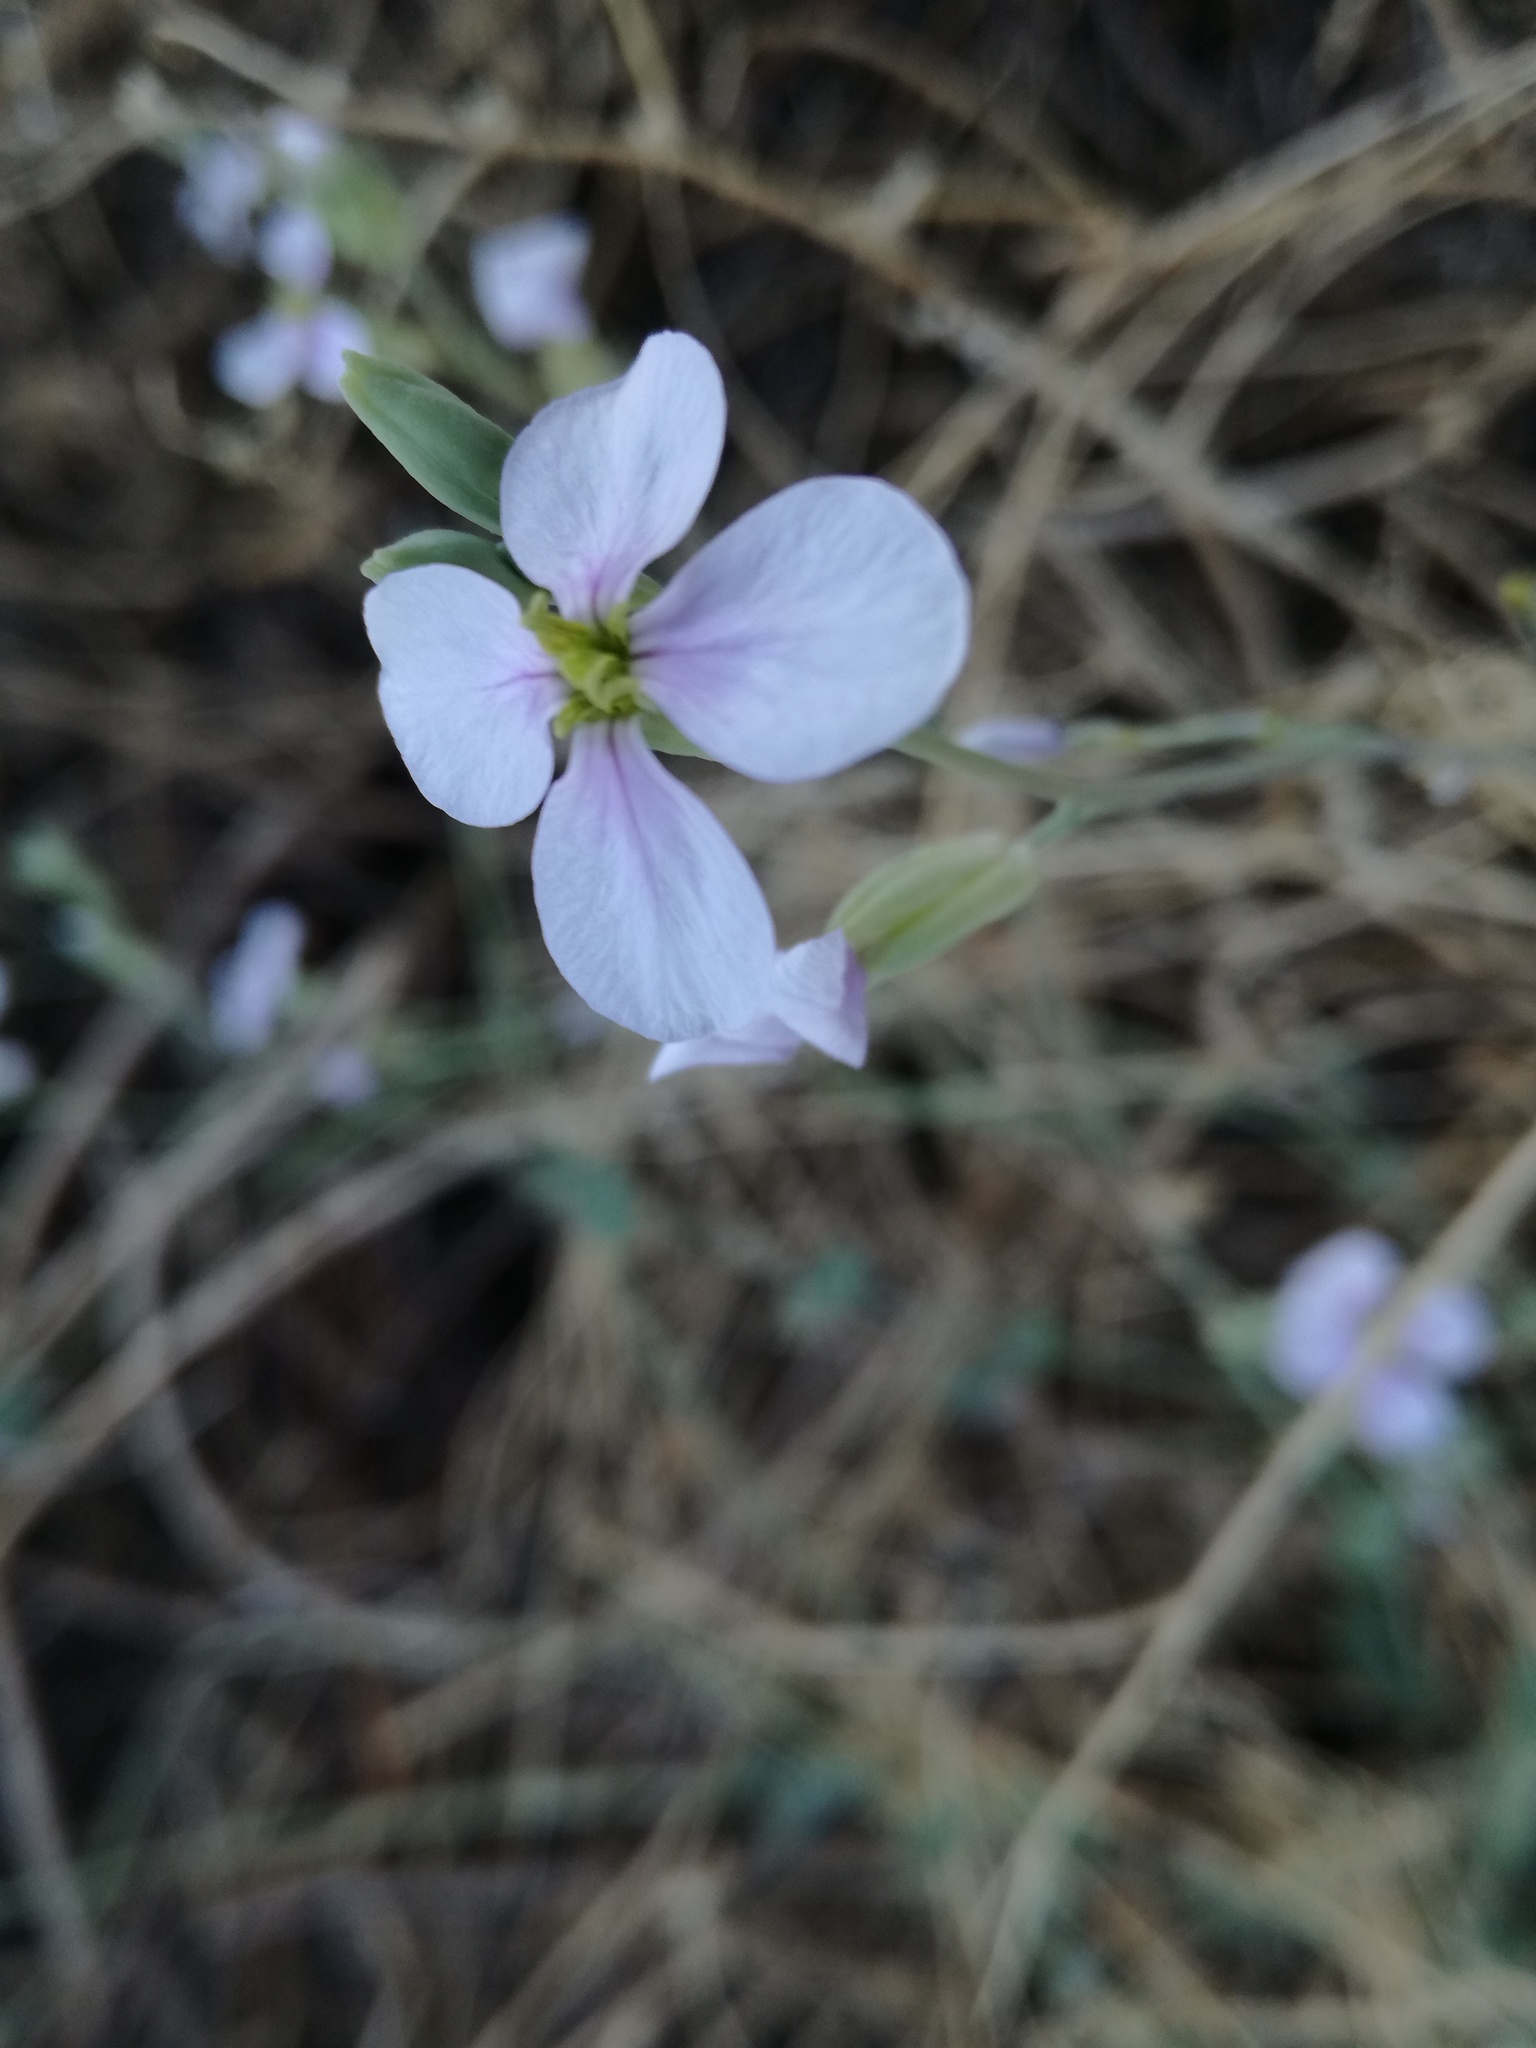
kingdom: Plantae
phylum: Tracheophyta
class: Magnoliopsida
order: Brassicales
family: Brassicaceae
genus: Moricandia
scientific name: Moricandia arvensis
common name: Purple mistress
